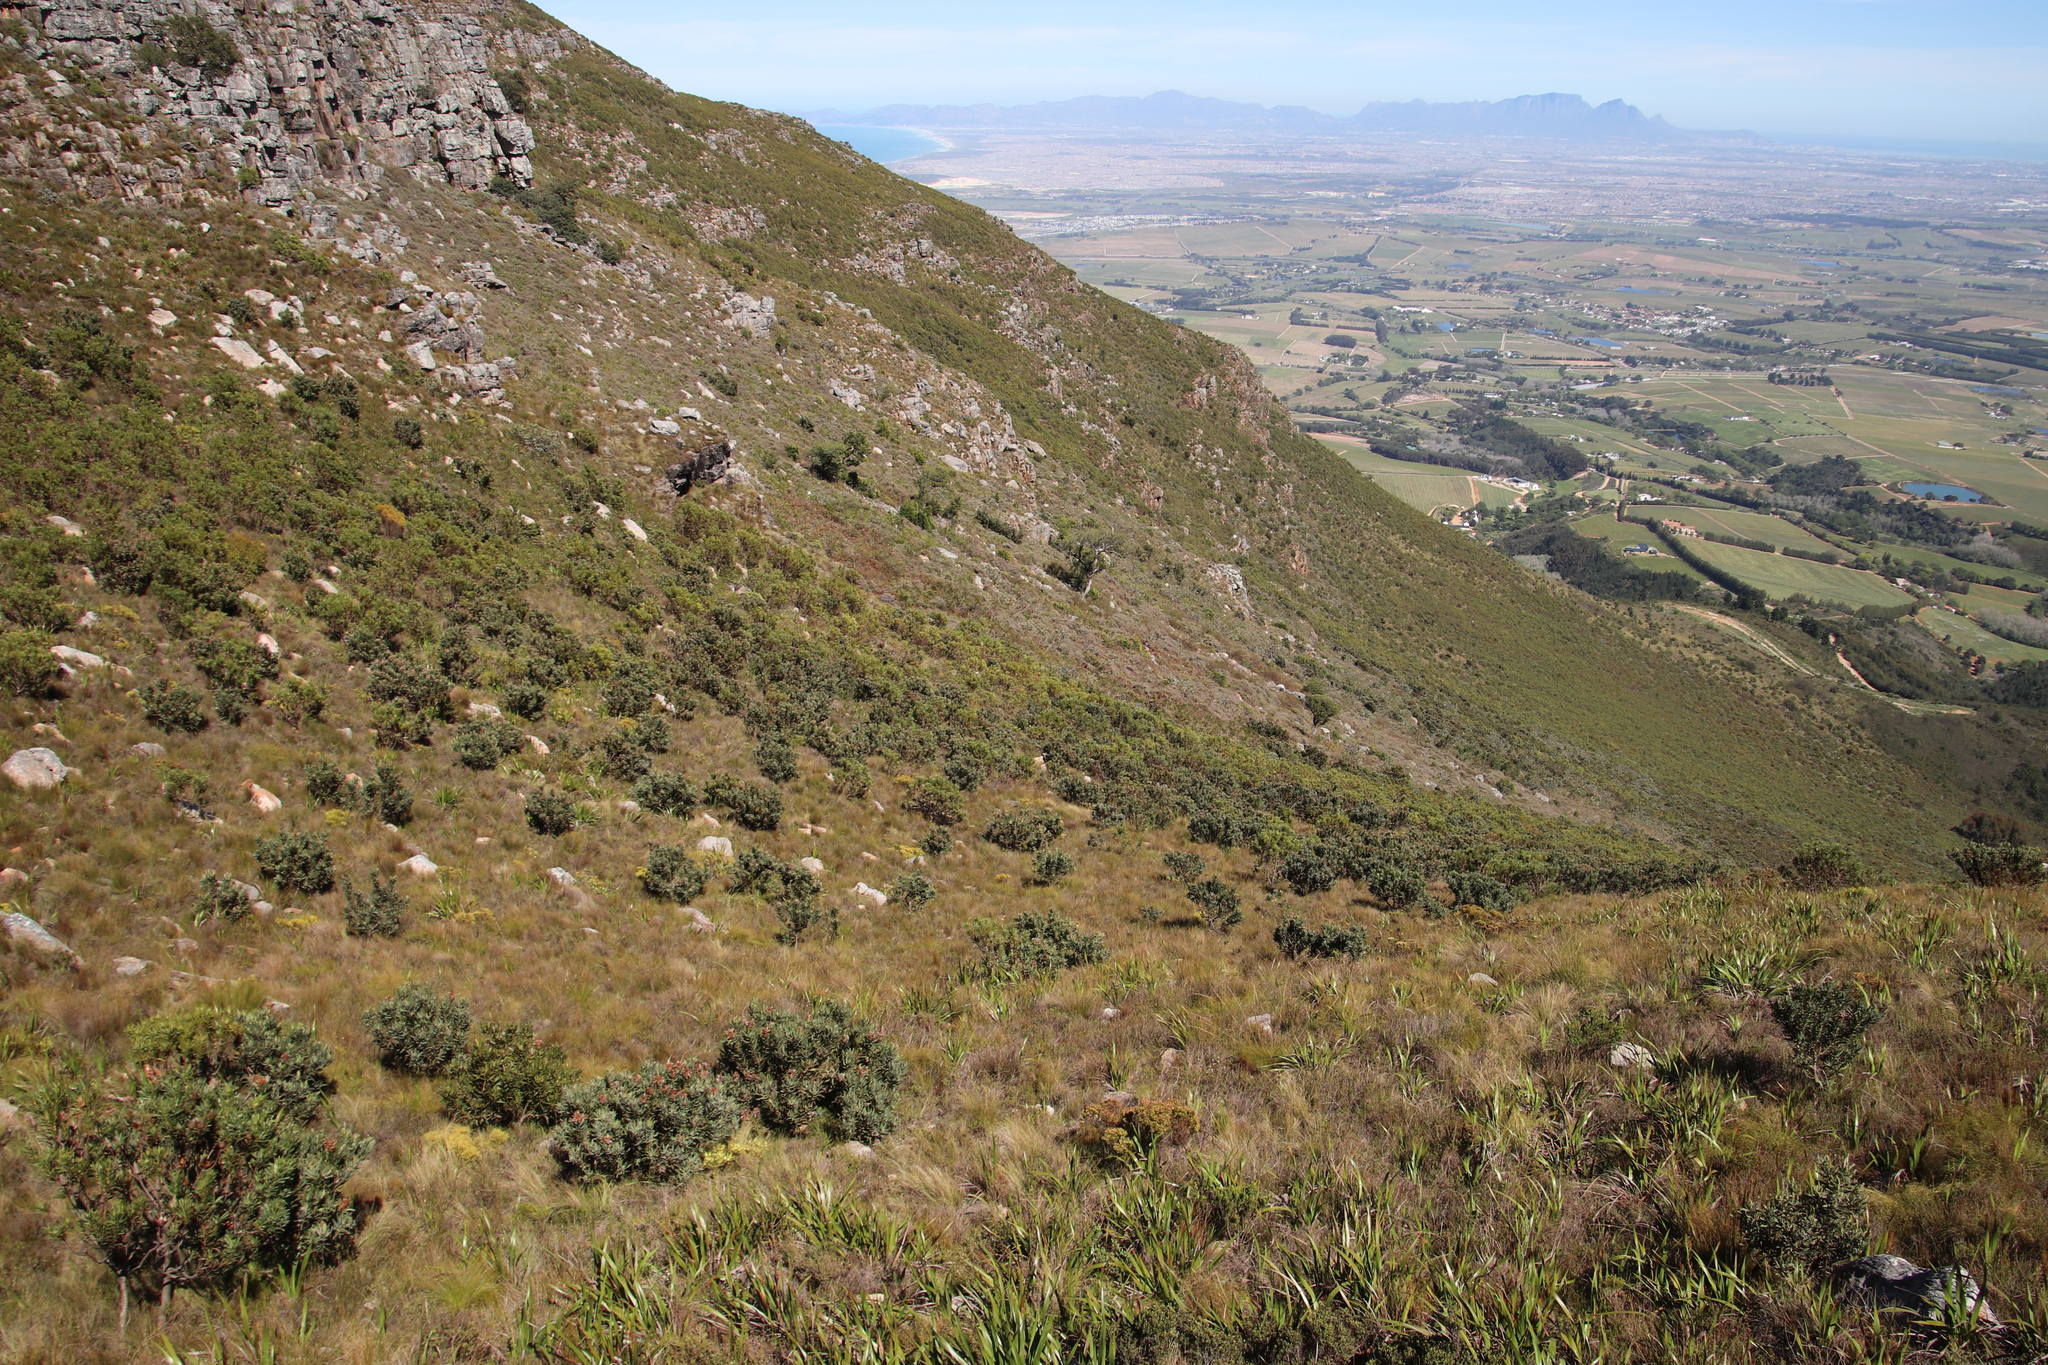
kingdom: Plantae
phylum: Tracheophyta
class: Magnoliopsida
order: Proteales
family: Proteaceae
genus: Protea
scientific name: Protea laurifolia
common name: Grey-leaf sugarbsh
